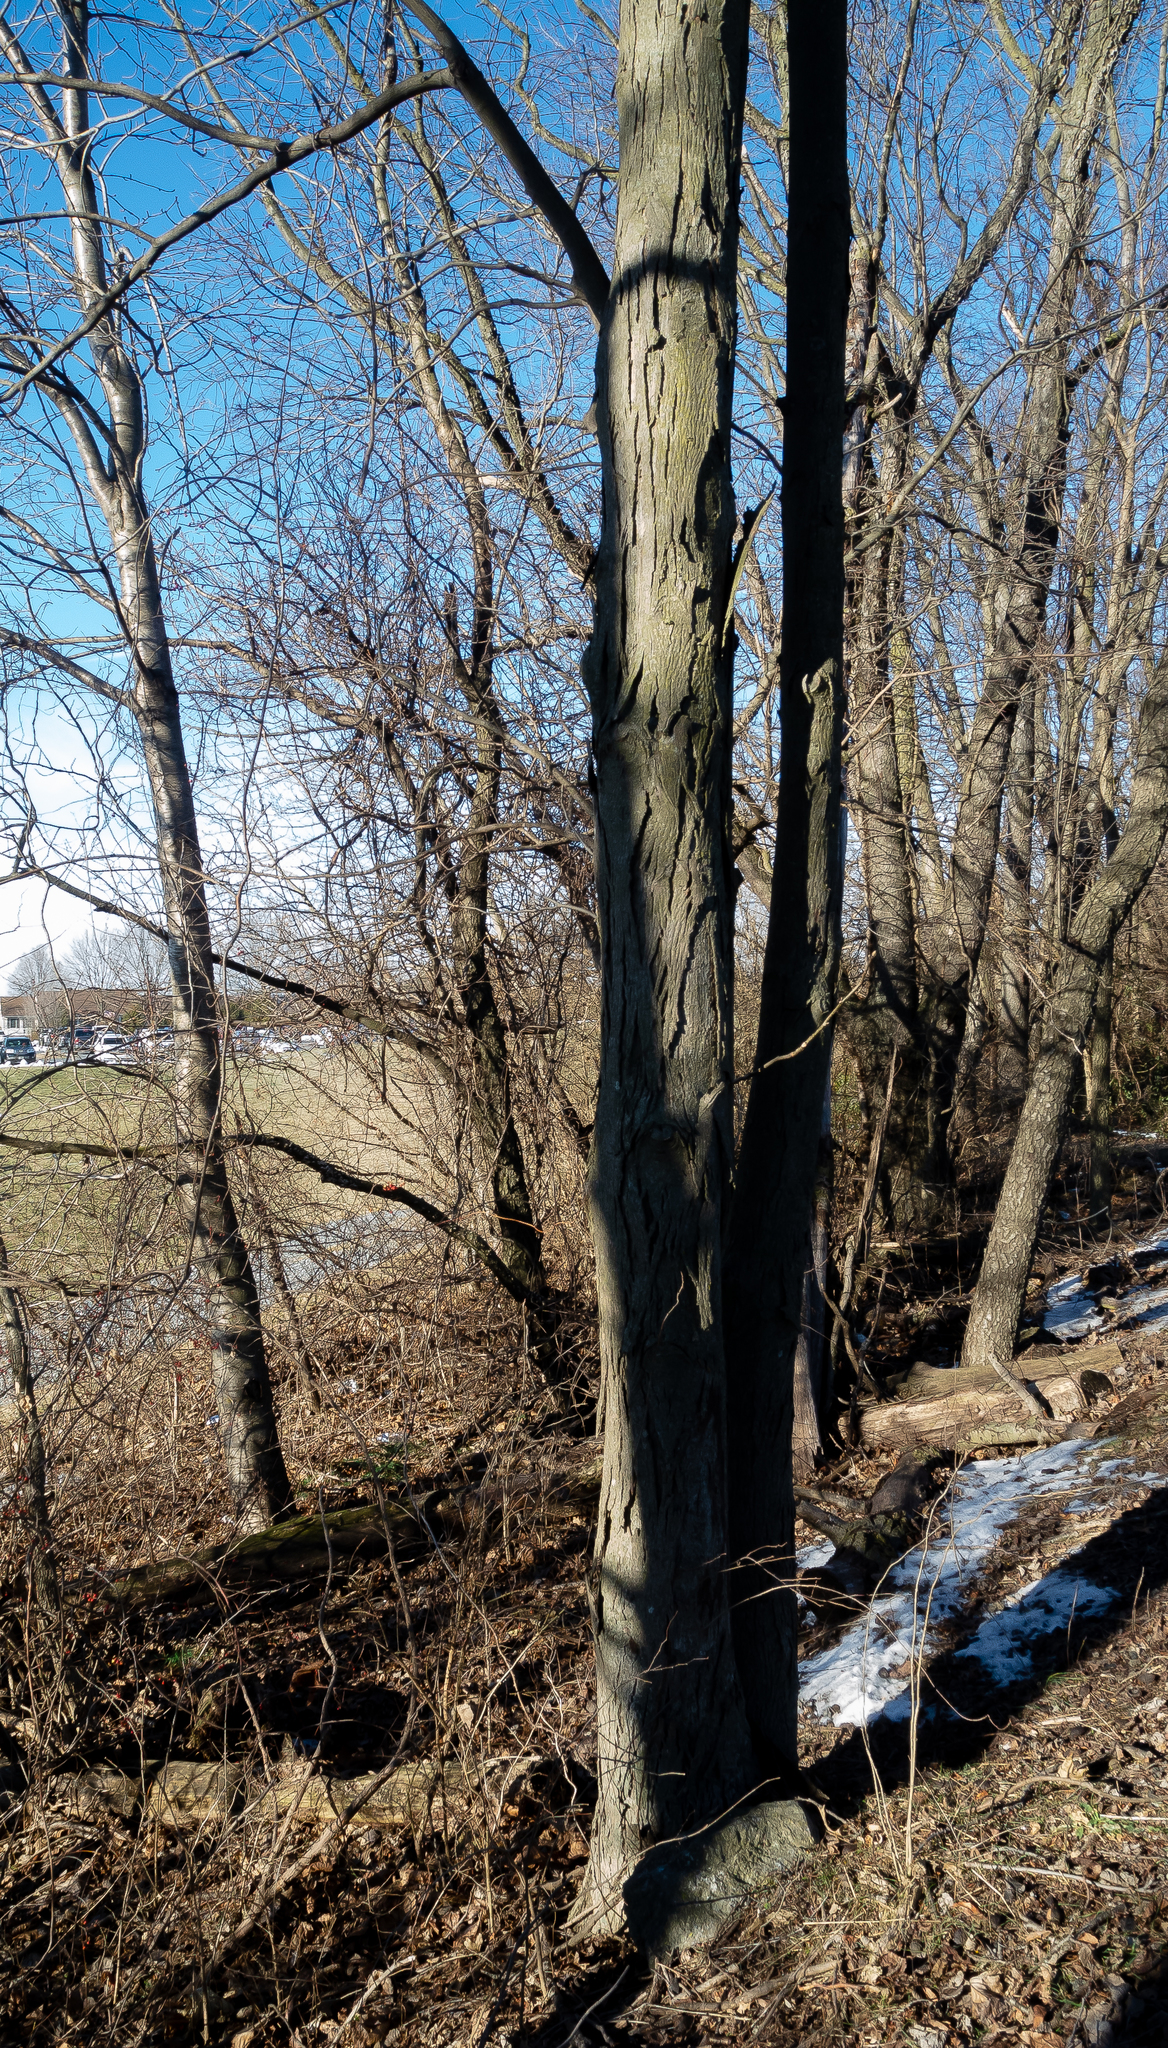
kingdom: Plantae
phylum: Tracheophyta
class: Magnoliopsida
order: Fagales
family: Juglandaceae
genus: Carya
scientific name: Carya ovata
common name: Shagbark hickory
